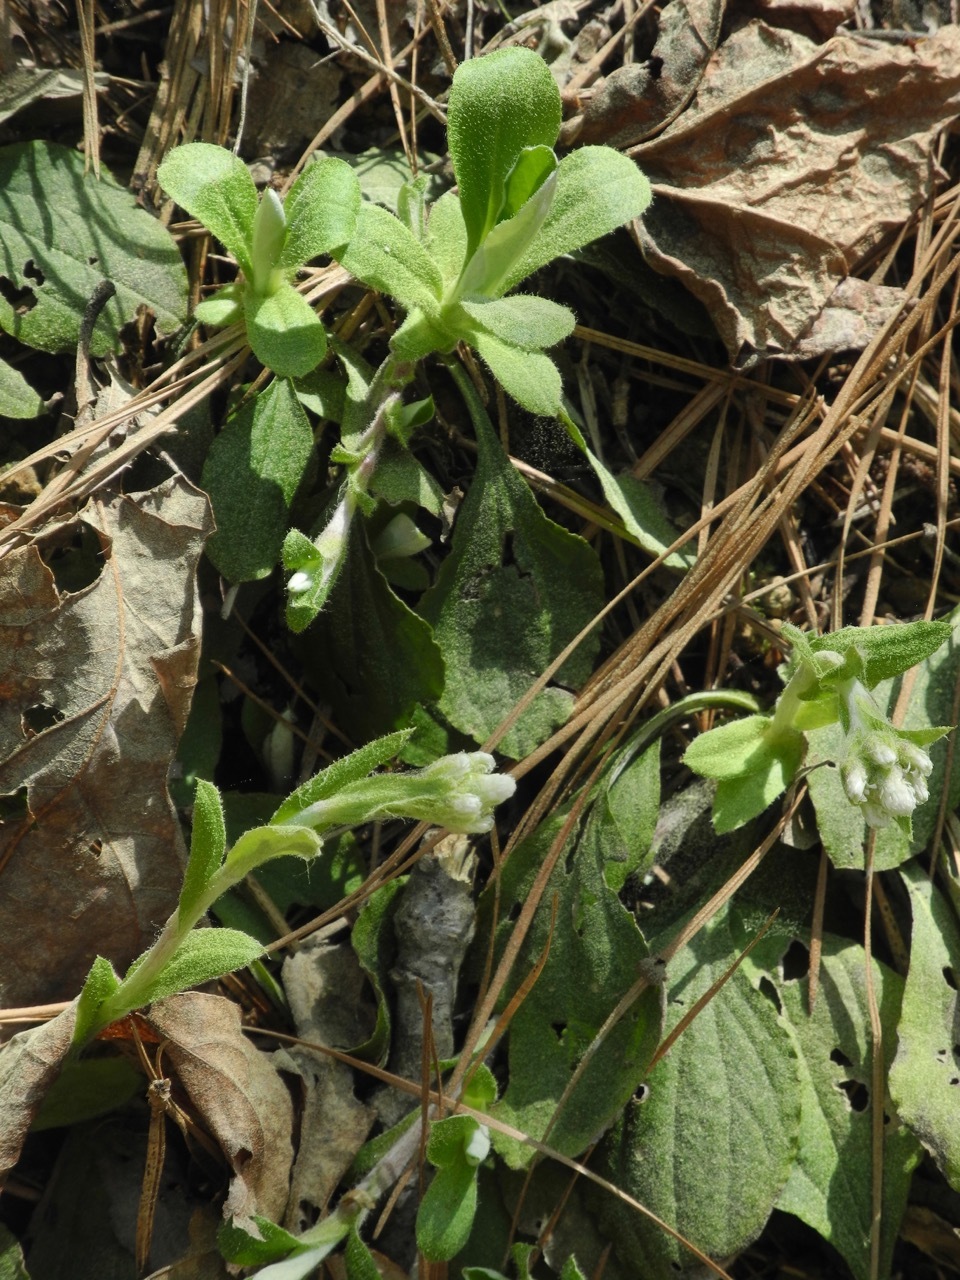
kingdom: Plantae
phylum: Tracheophyta
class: Magnoliopsida
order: Asterales
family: Asteraceae
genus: Antennaria
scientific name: Antennaria plantaginifolia
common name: Plantain-leaved pussytoes
